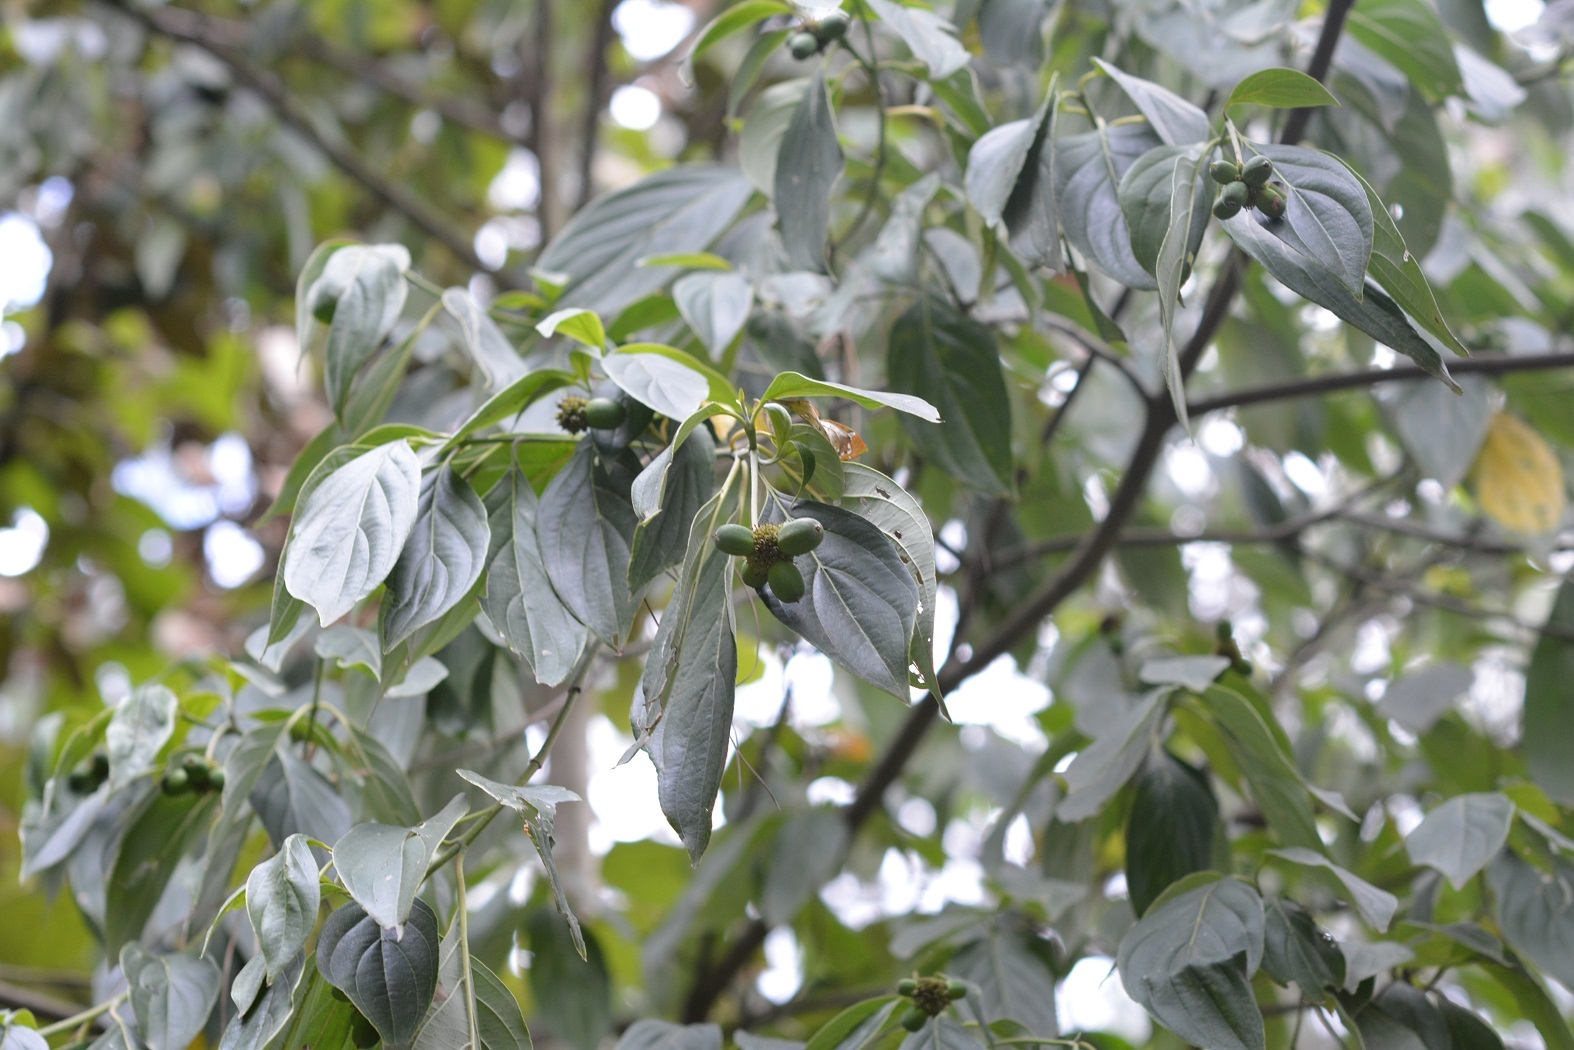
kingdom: Plantae
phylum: Tracheophyta
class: Magnoliopsida
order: Cornales
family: Cornaceae
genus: Cornus
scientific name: Cornus disciflora
